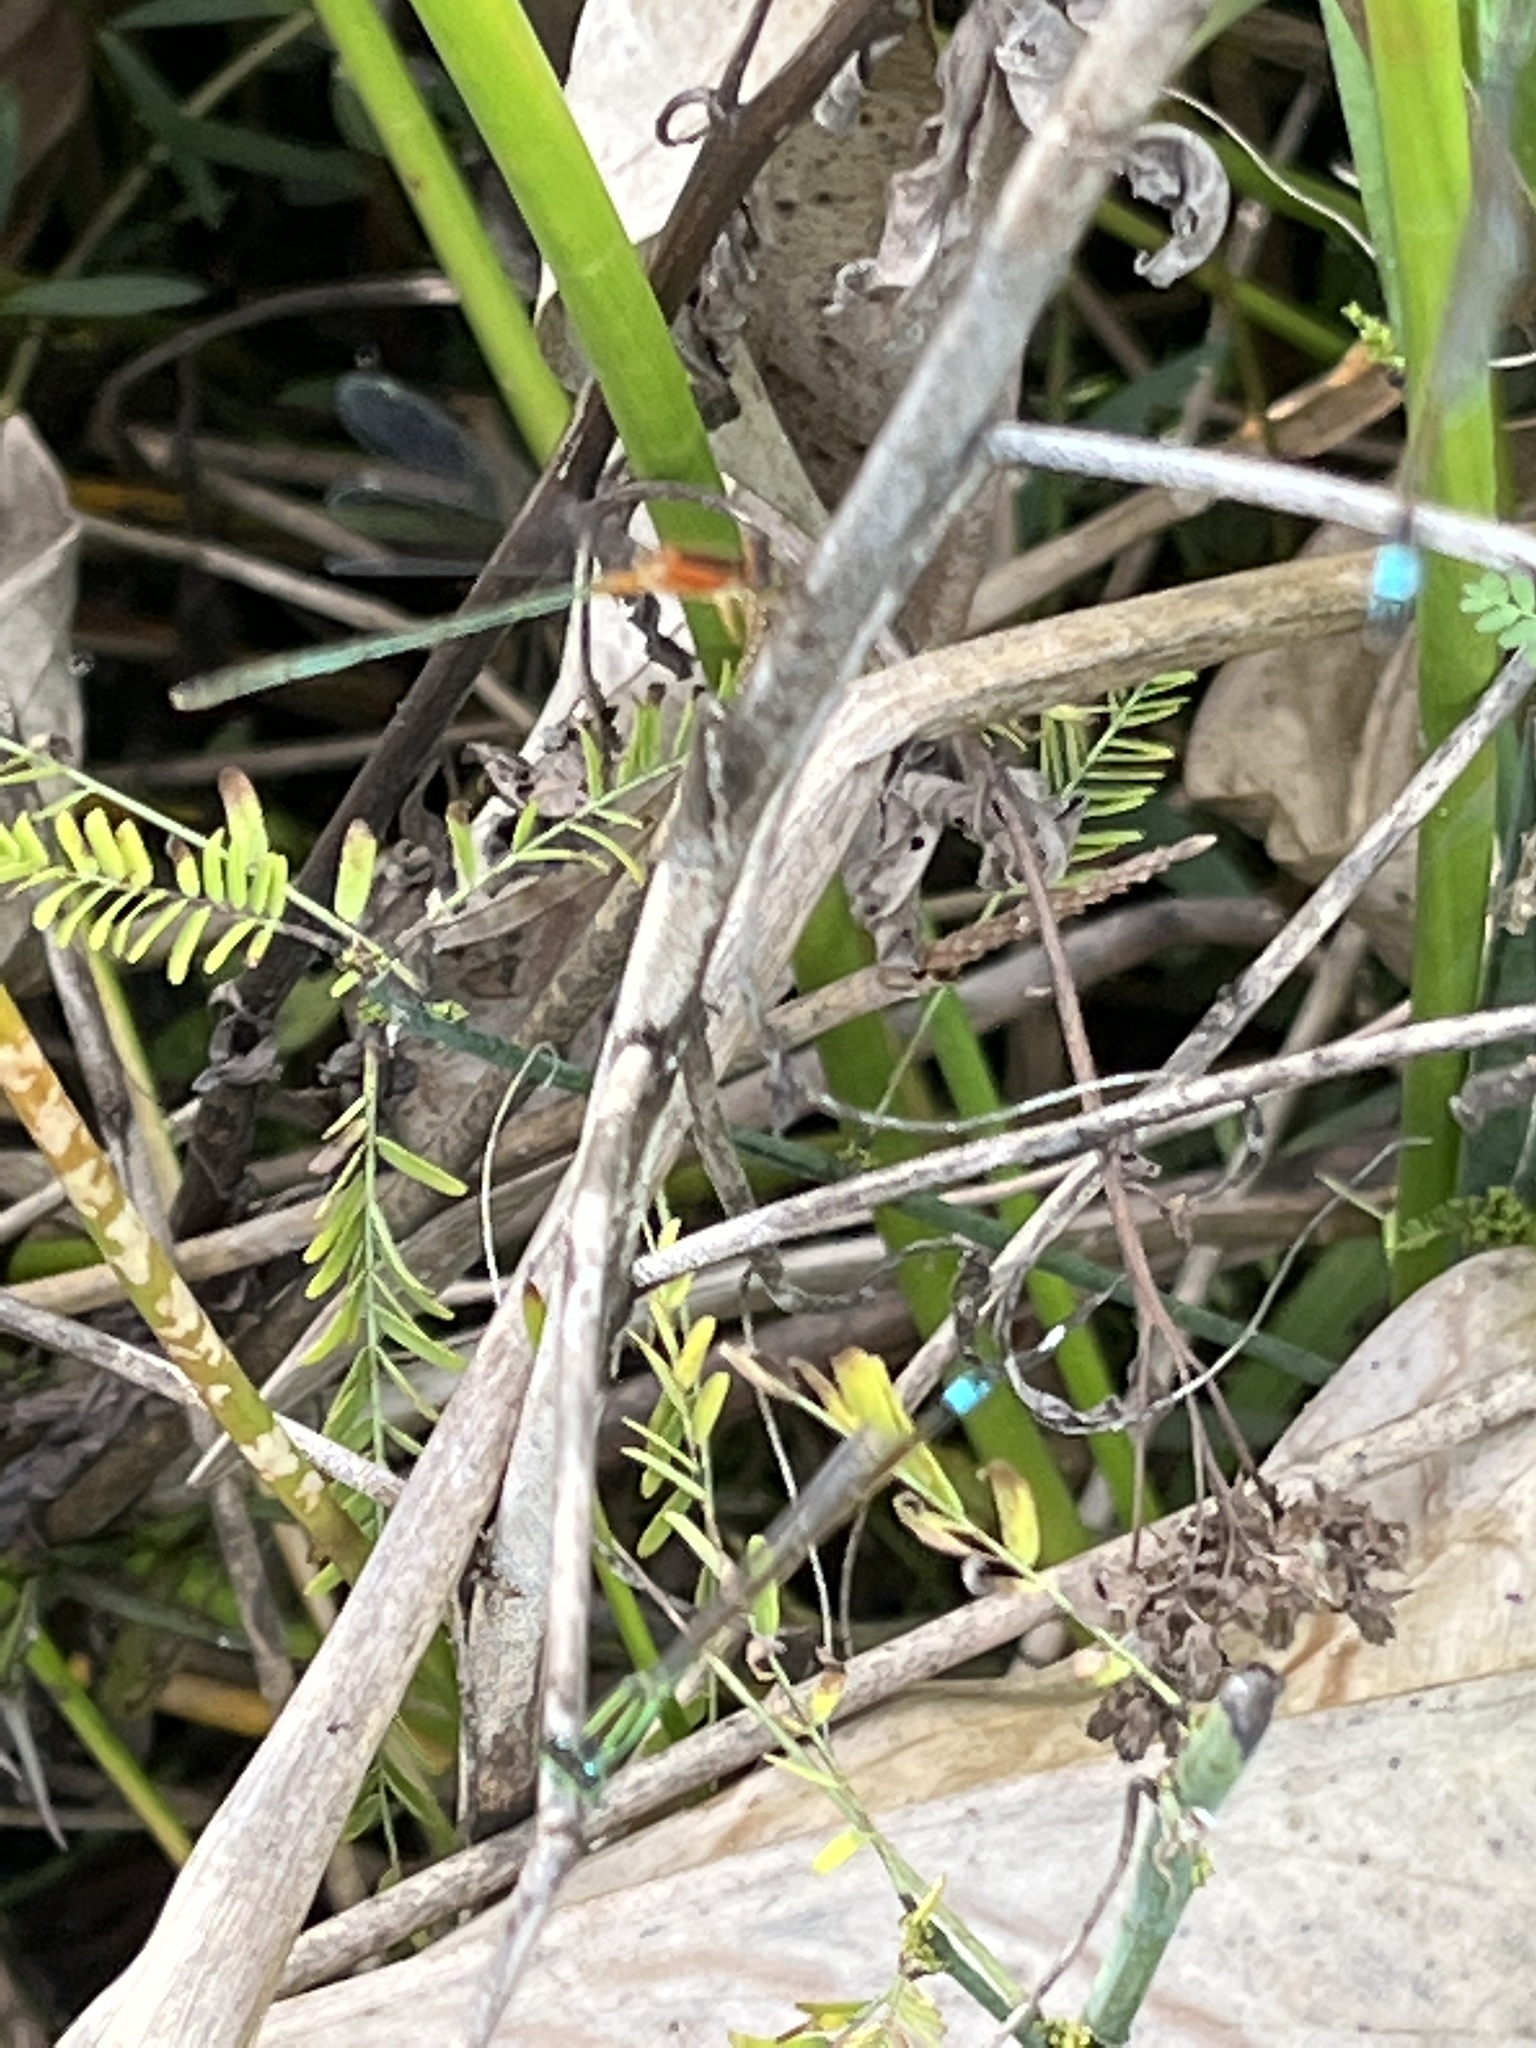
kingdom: Animalia
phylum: Arthropoda
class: Insecta
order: Odonata
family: Coenagrionidae
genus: Ischnura
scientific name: Ischnura ramburii
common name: Rambur's forktail
